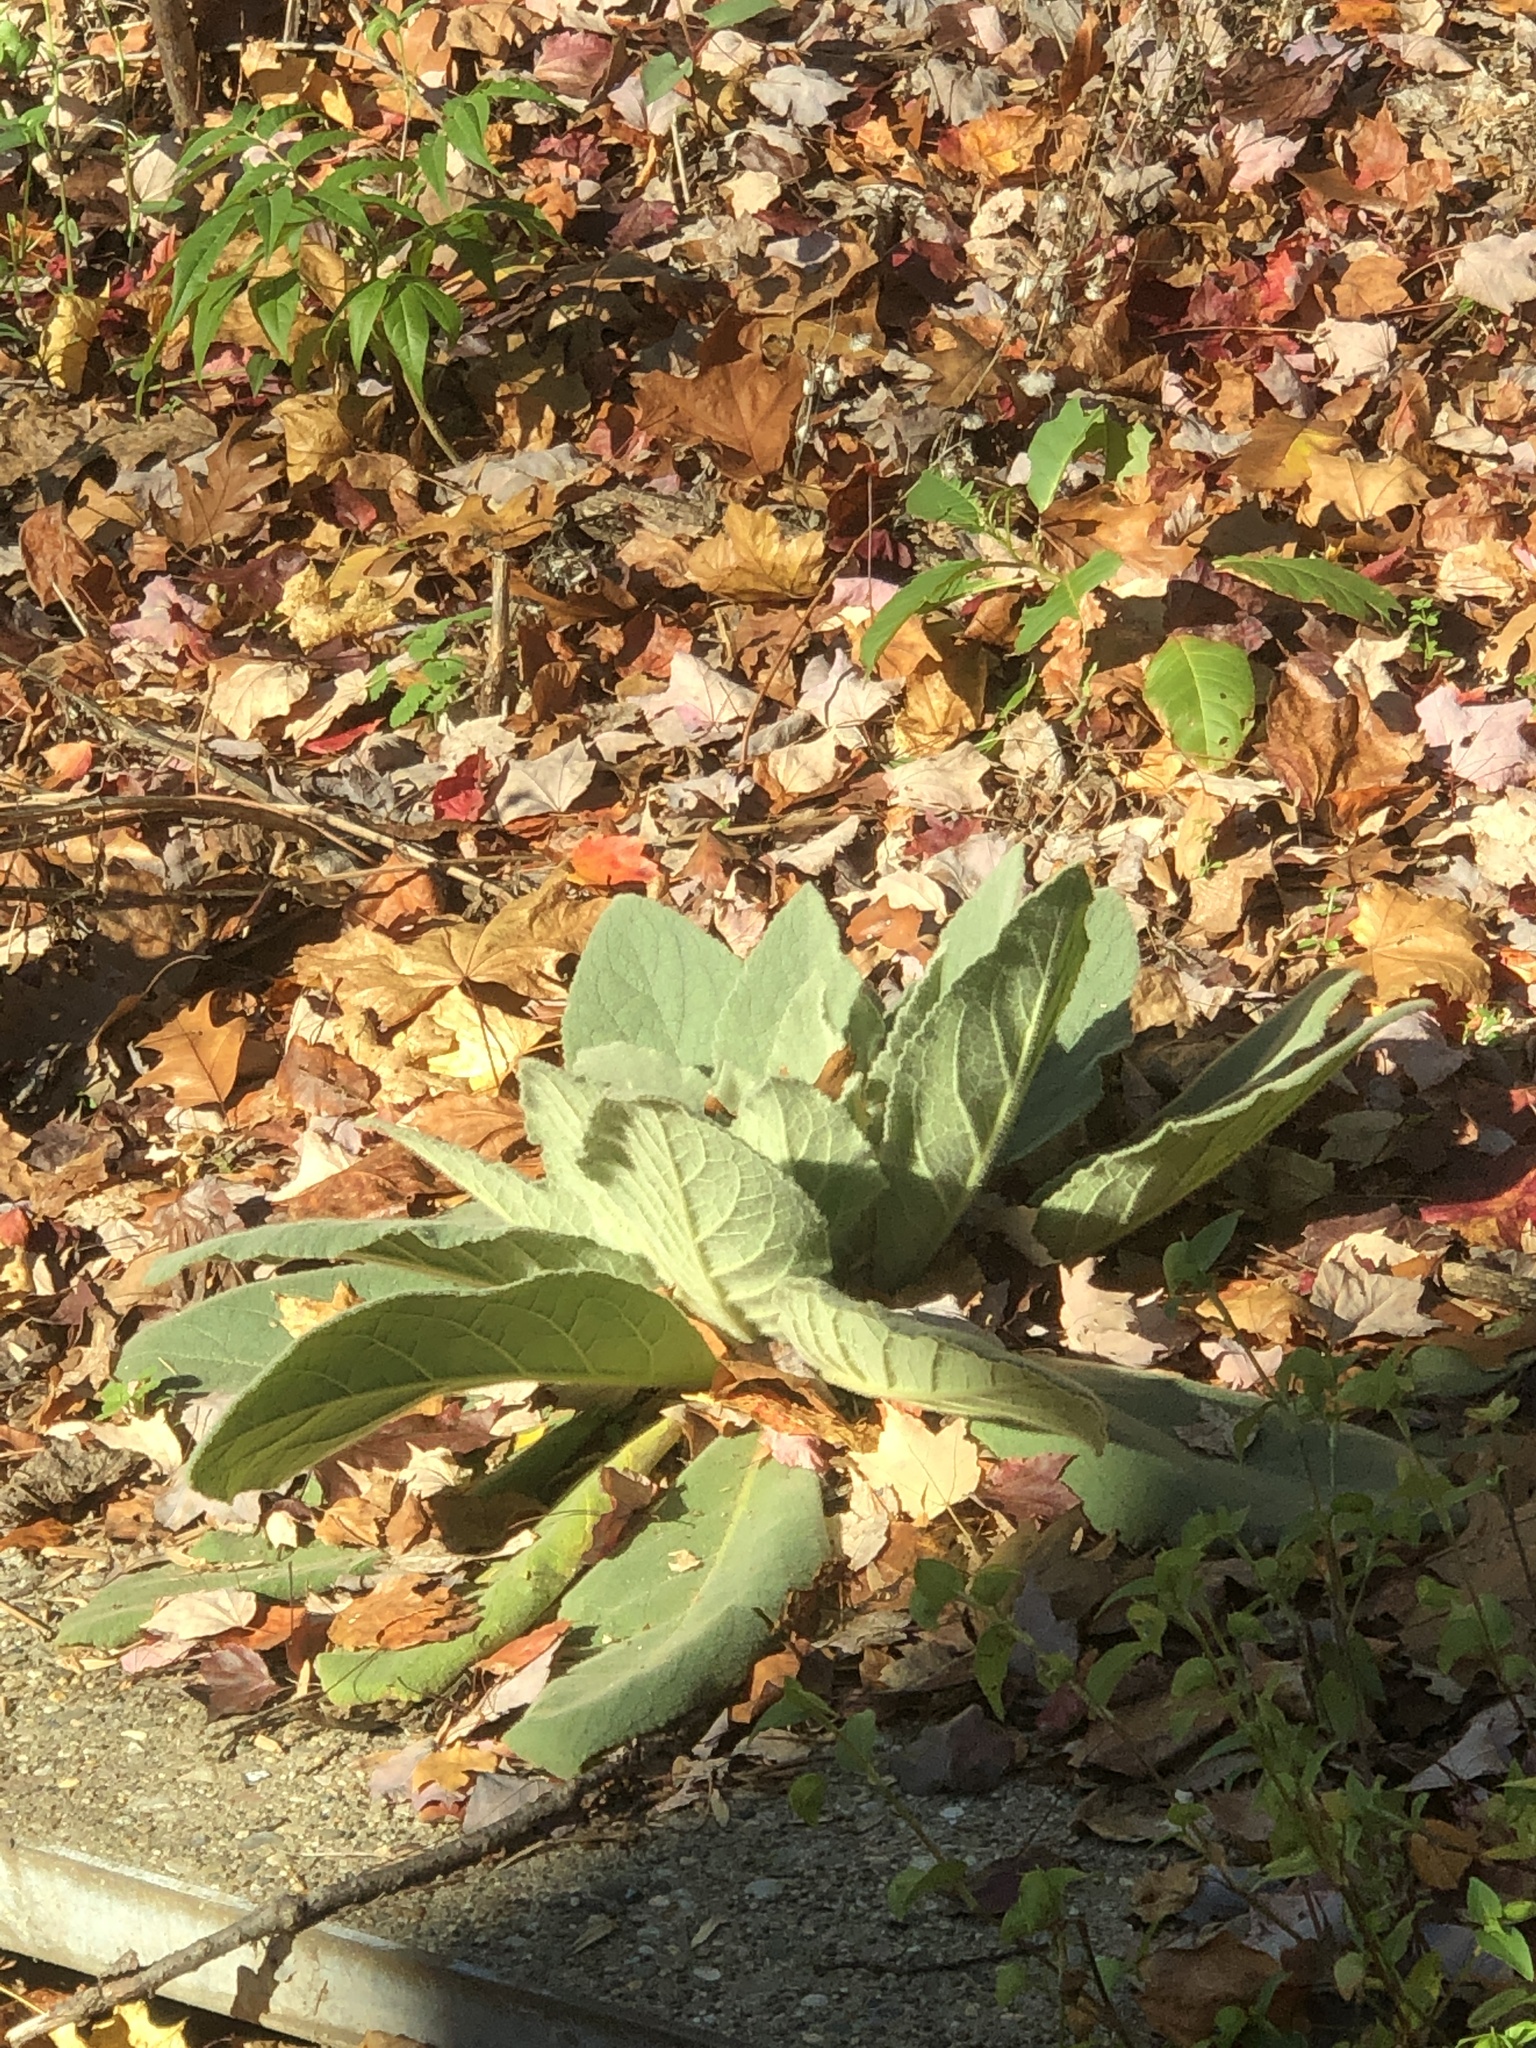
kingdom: Plantae
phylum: Tracheophyta
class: Magnoliopsida
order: Lamiales
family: Scrophulariaceae
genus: Verbascum
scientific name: Verbascum thapsus
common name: Common mullein
